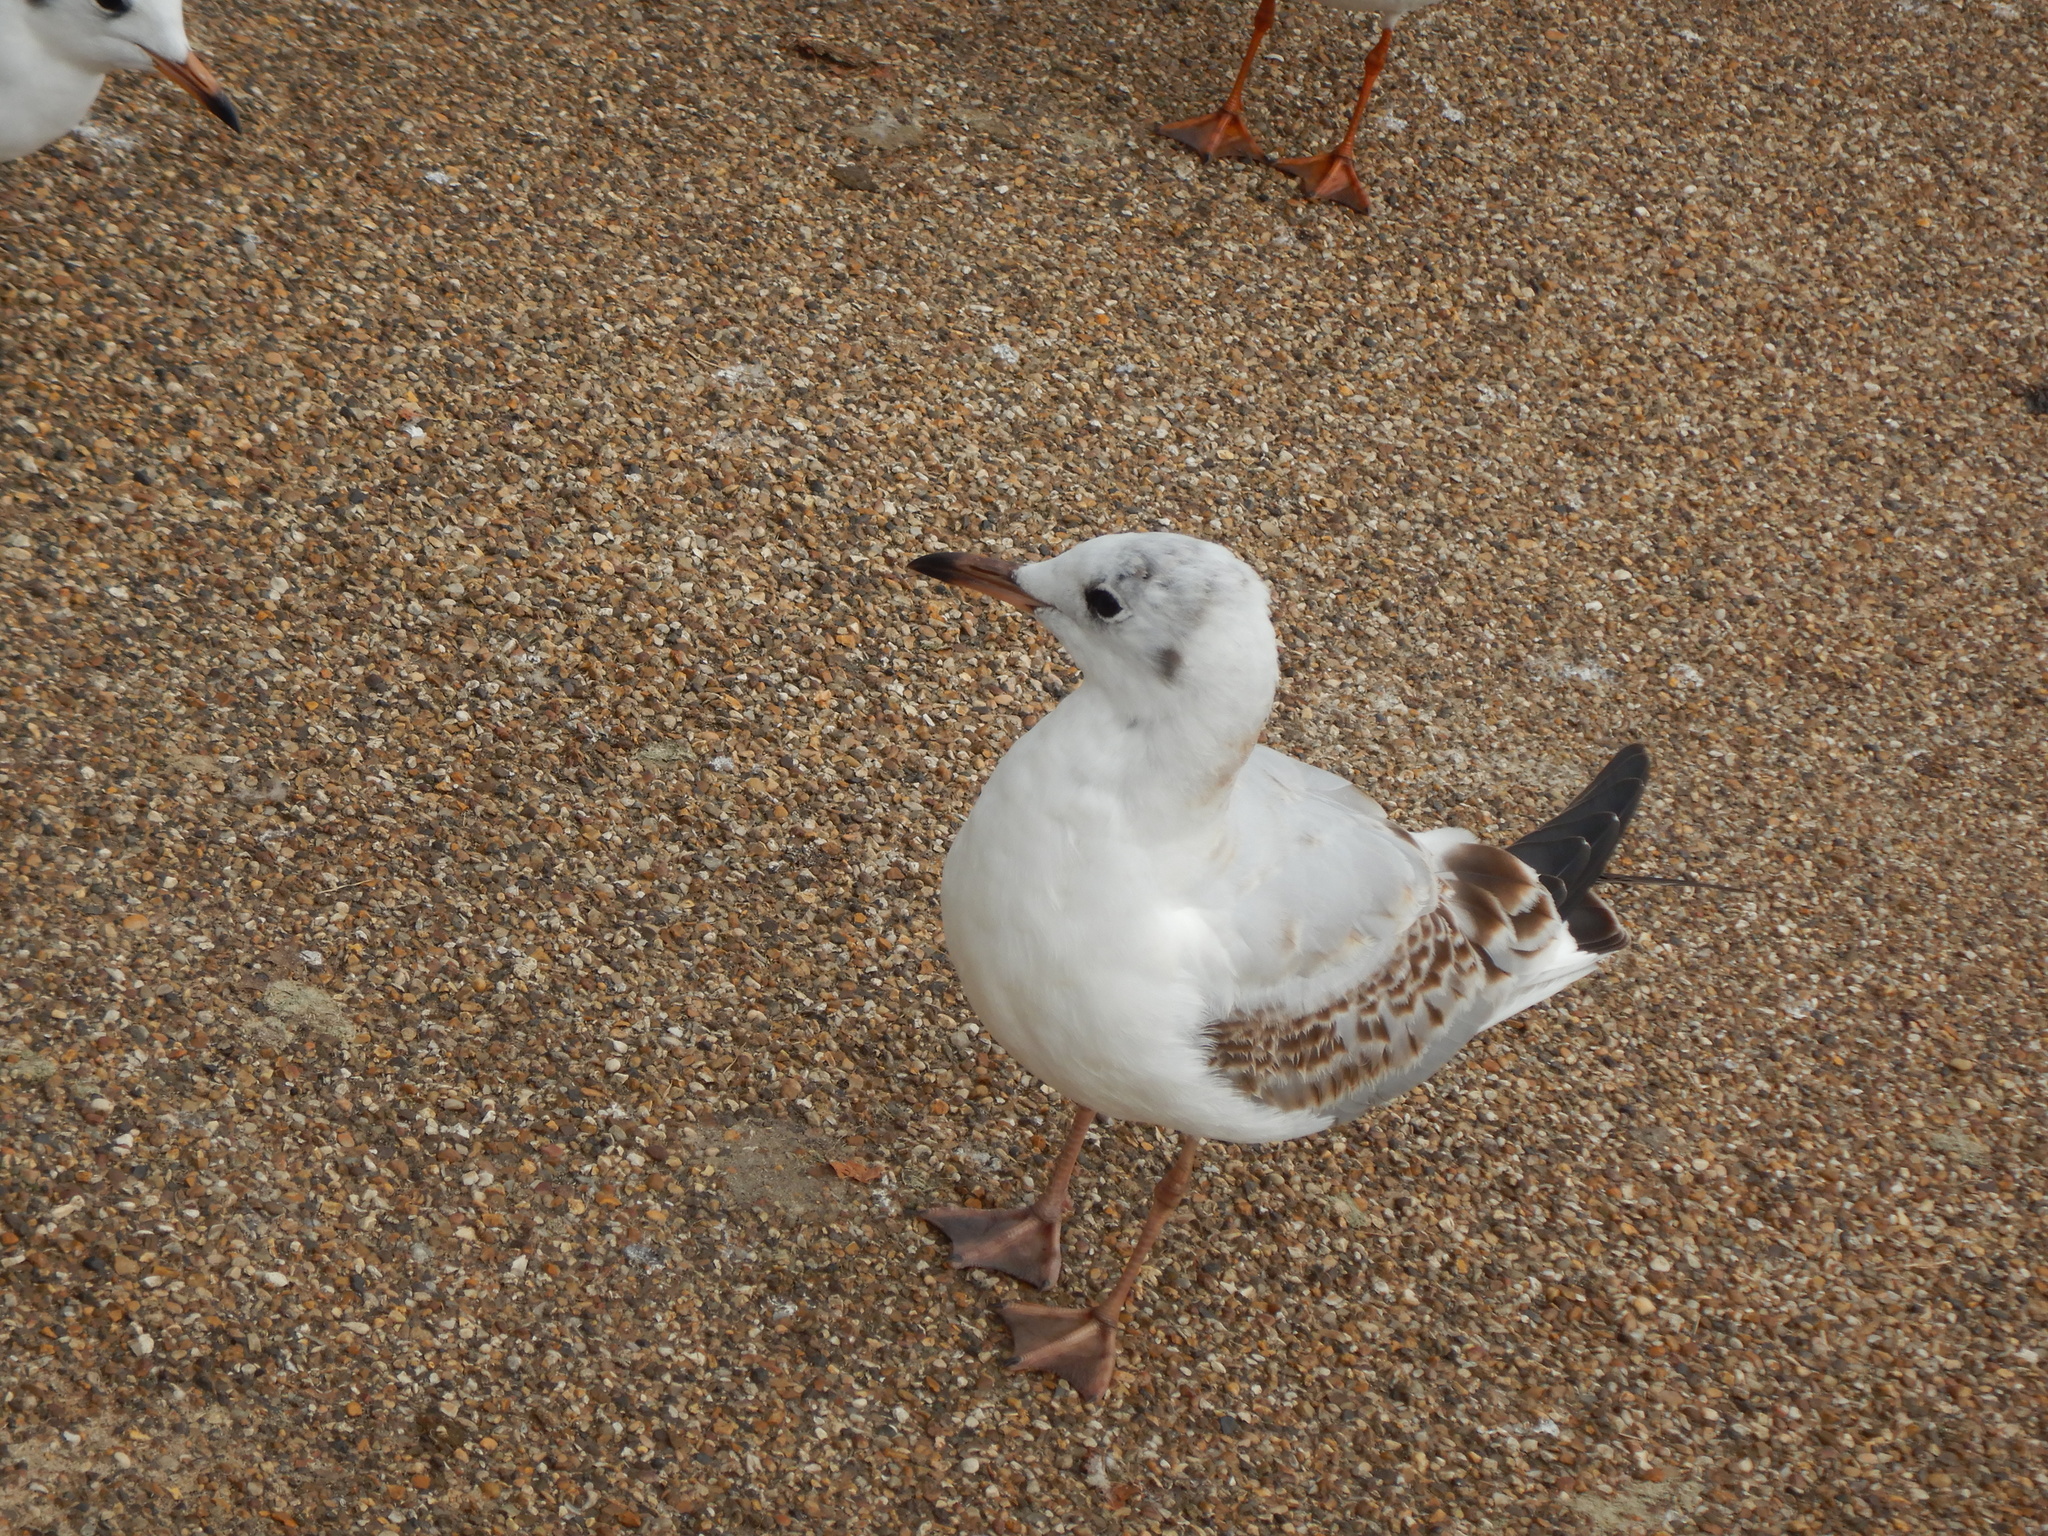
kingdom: Animalia
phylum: Chordata
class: Aves
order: Charadriiformes
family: Laridae
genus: Chroicocephalus
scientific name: Chroicocephalus ridibundus
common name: Black-headed gull
